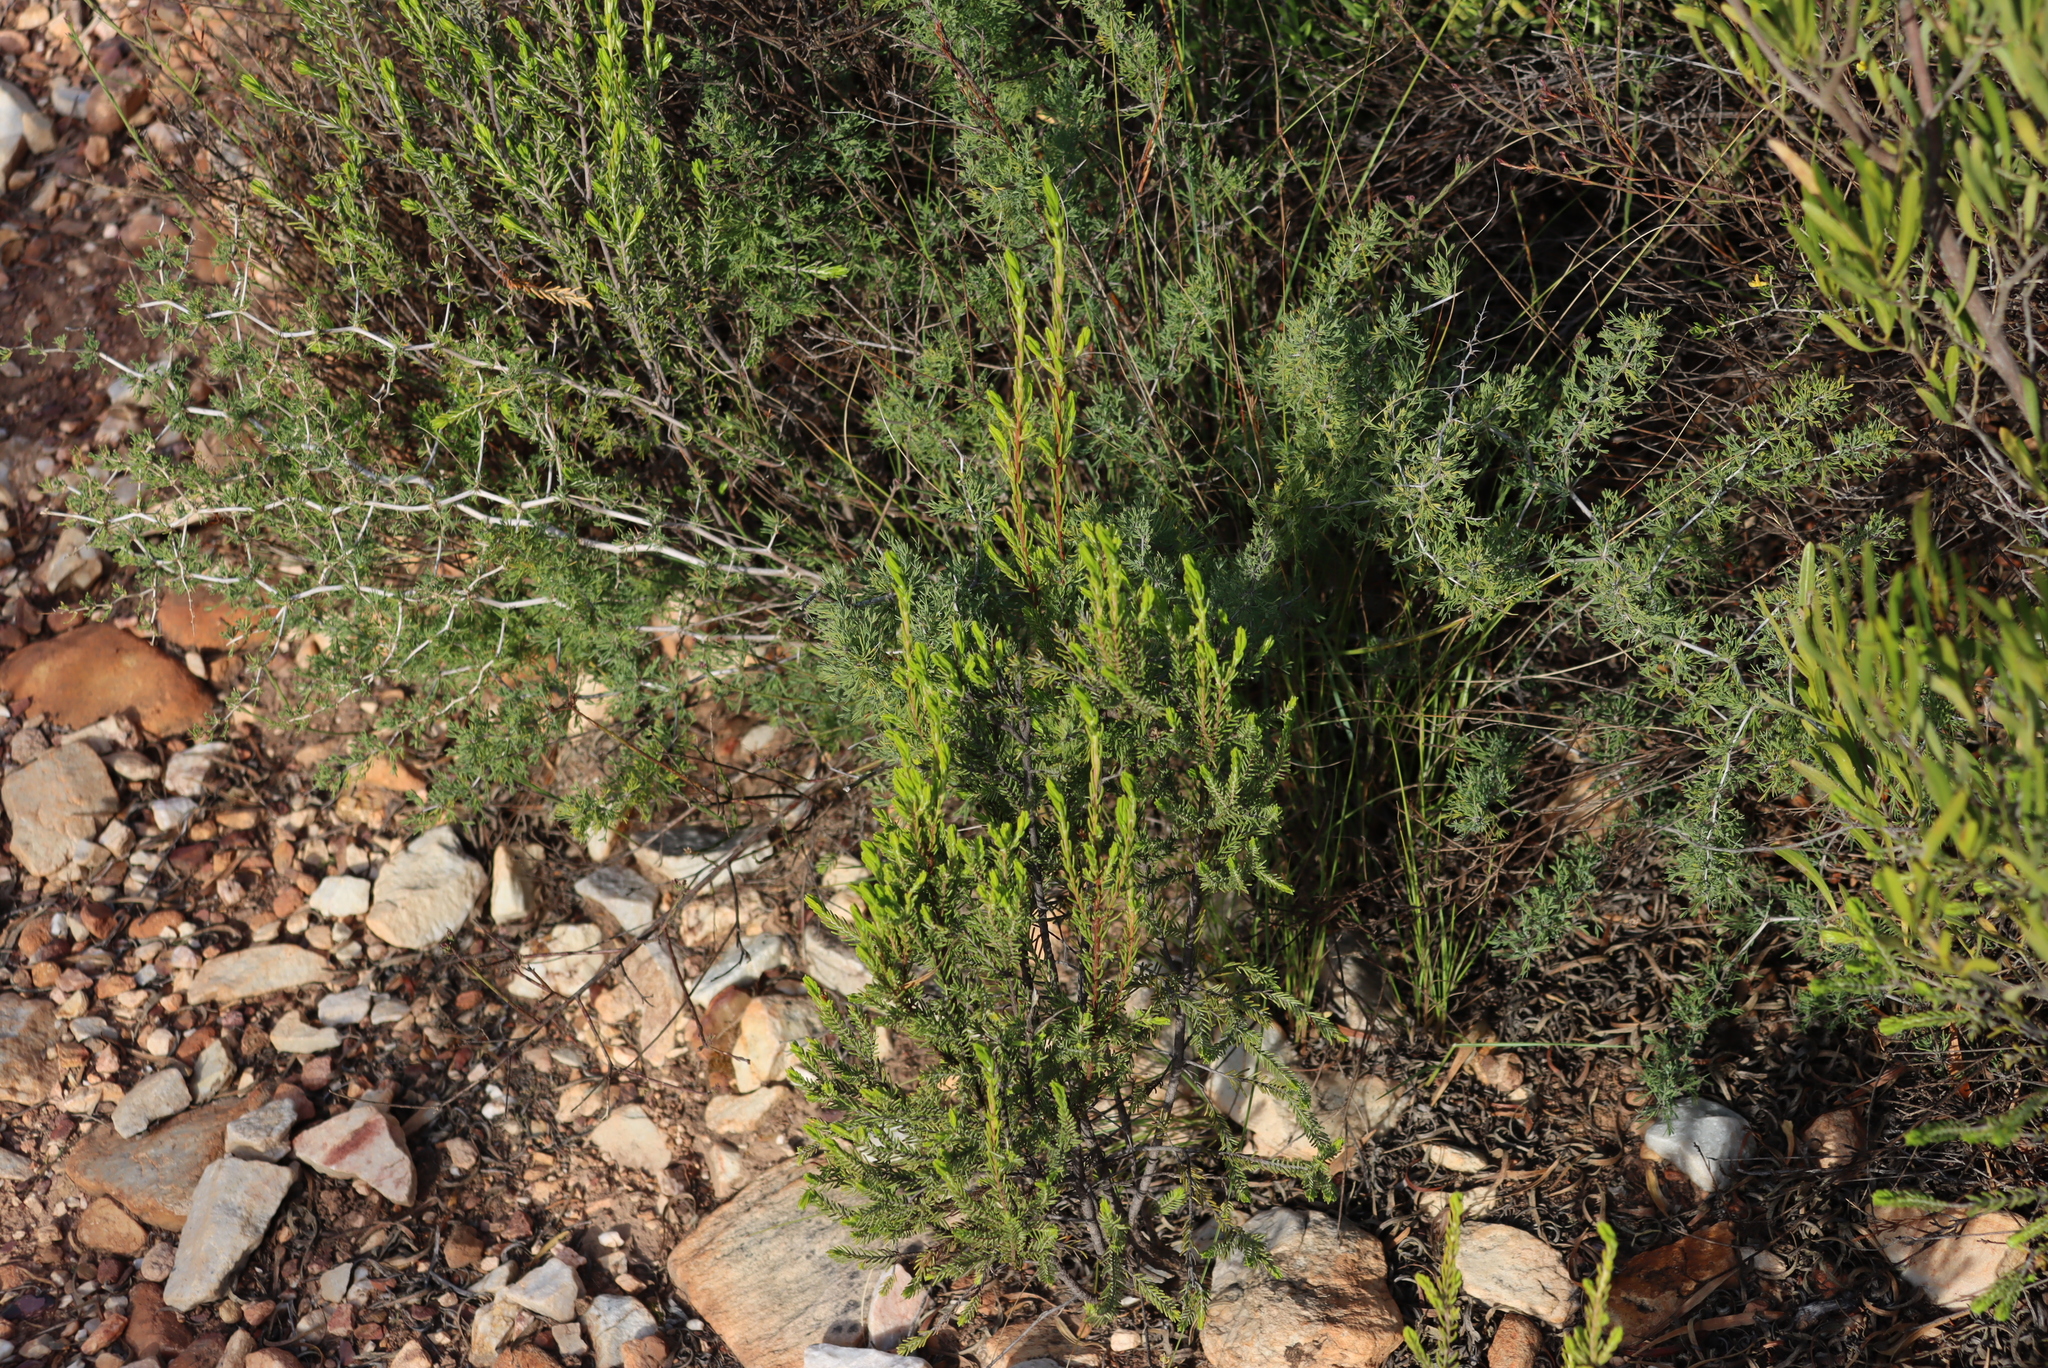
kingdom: Plantae
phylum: Tracheophyta
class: Magnoliopsida
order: Malvales
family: Thymelaeaceae
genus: Passerina
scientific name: Passerina obtusifolia
